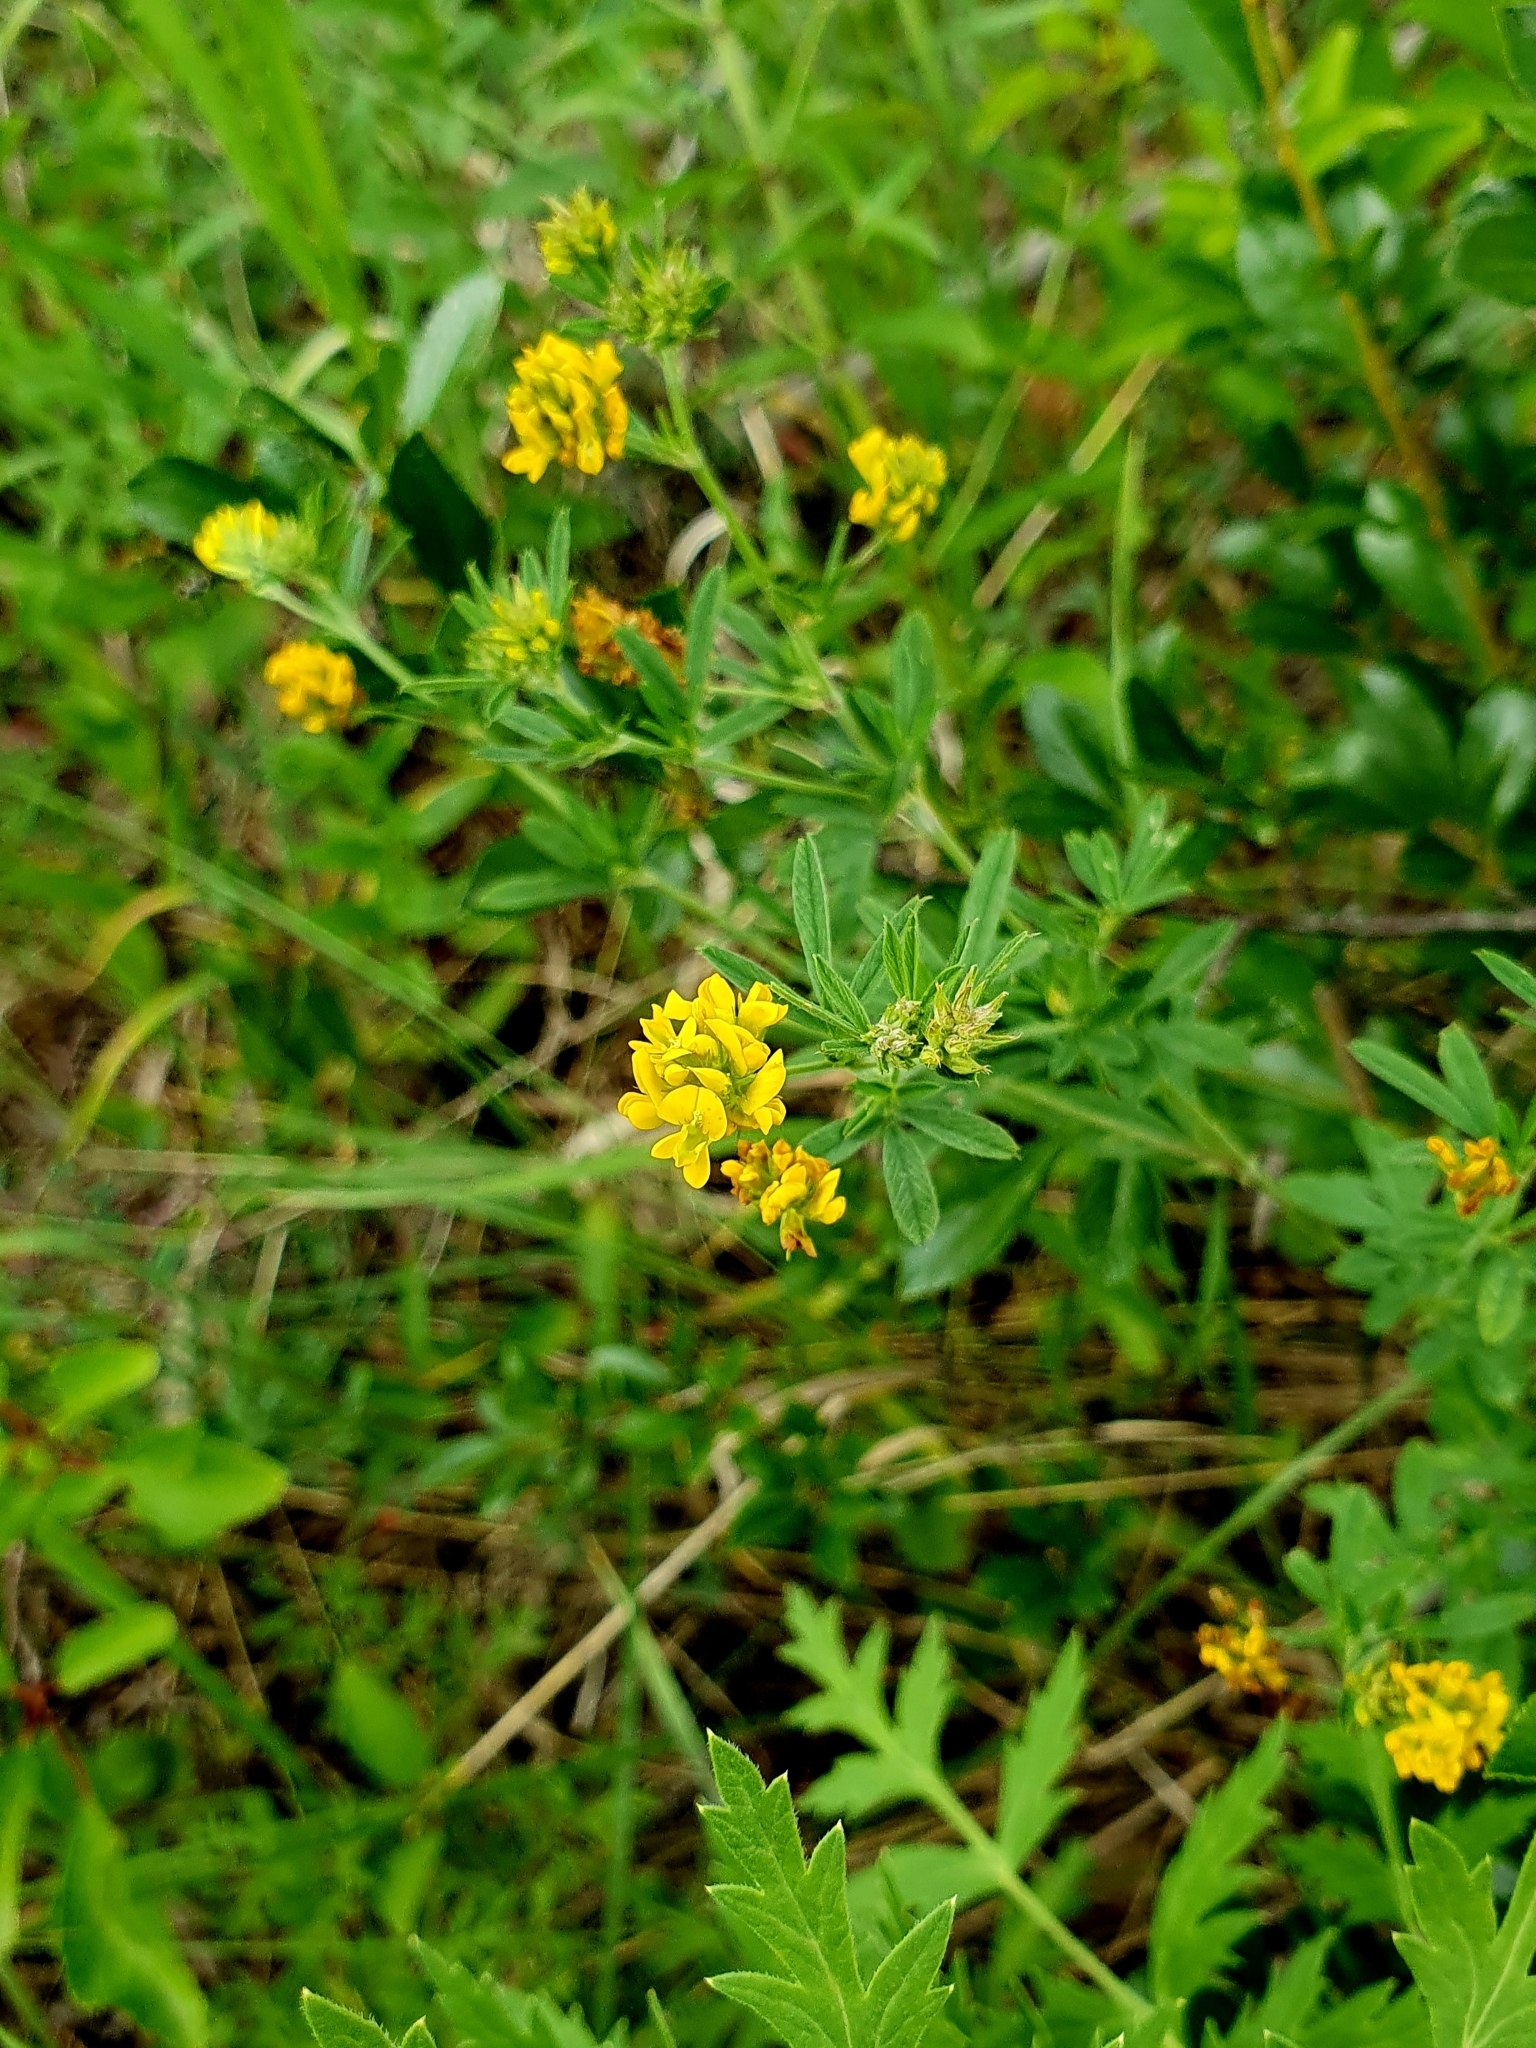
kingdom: Plantae
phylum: Tracheophyta
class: Magnoliopsida
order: Fabales
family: Fabaceae
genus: Medicago
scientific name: Medicago falcata
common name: Sickle medick
